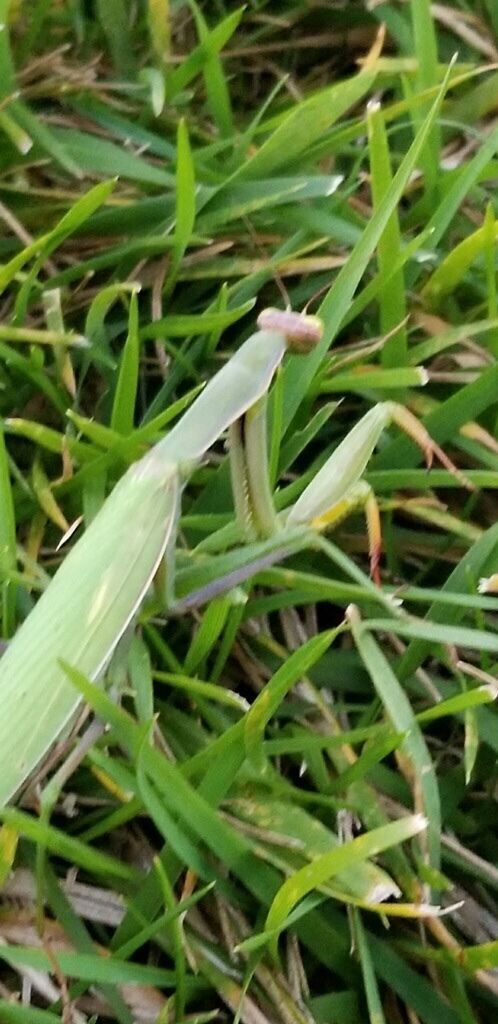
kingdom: Animalia
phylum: Arthropoda
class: Insecta
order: Mantodea
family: Mantidae
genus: Mantis
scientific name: Mantis religiosa
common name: Praying mantis
